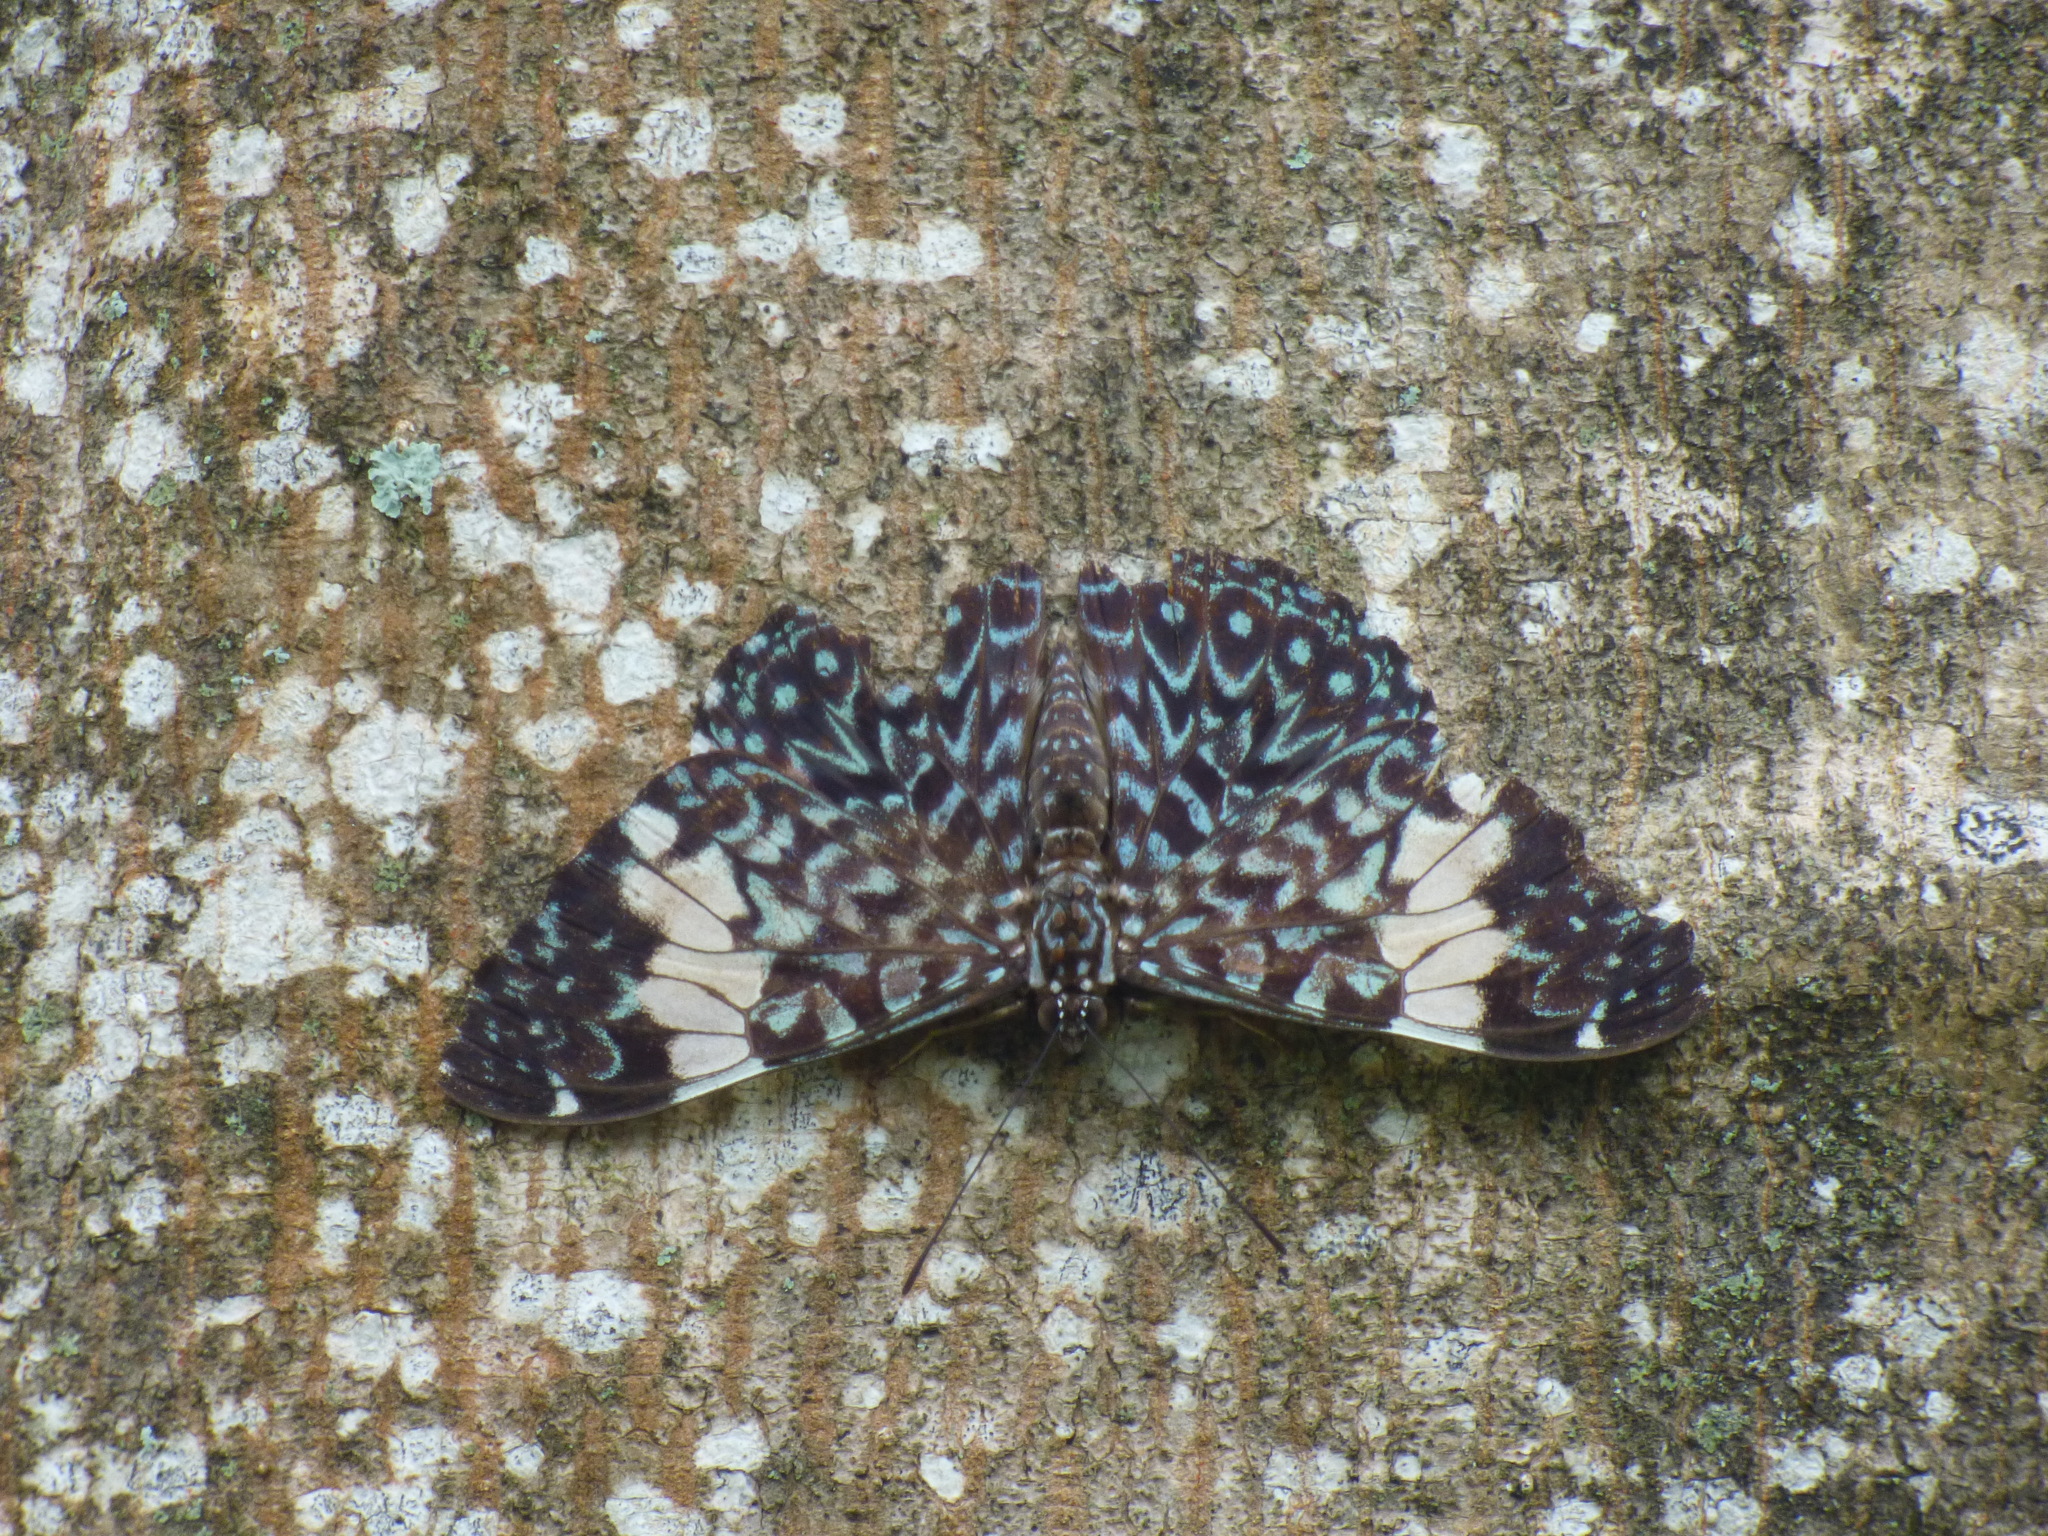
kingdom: Animalia
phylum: Arthropoda
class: Insecta
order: Lepidoptera
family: Nymphalidae
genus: Hamadryas
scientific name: Hamadryas amphinome
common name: Red cracker
